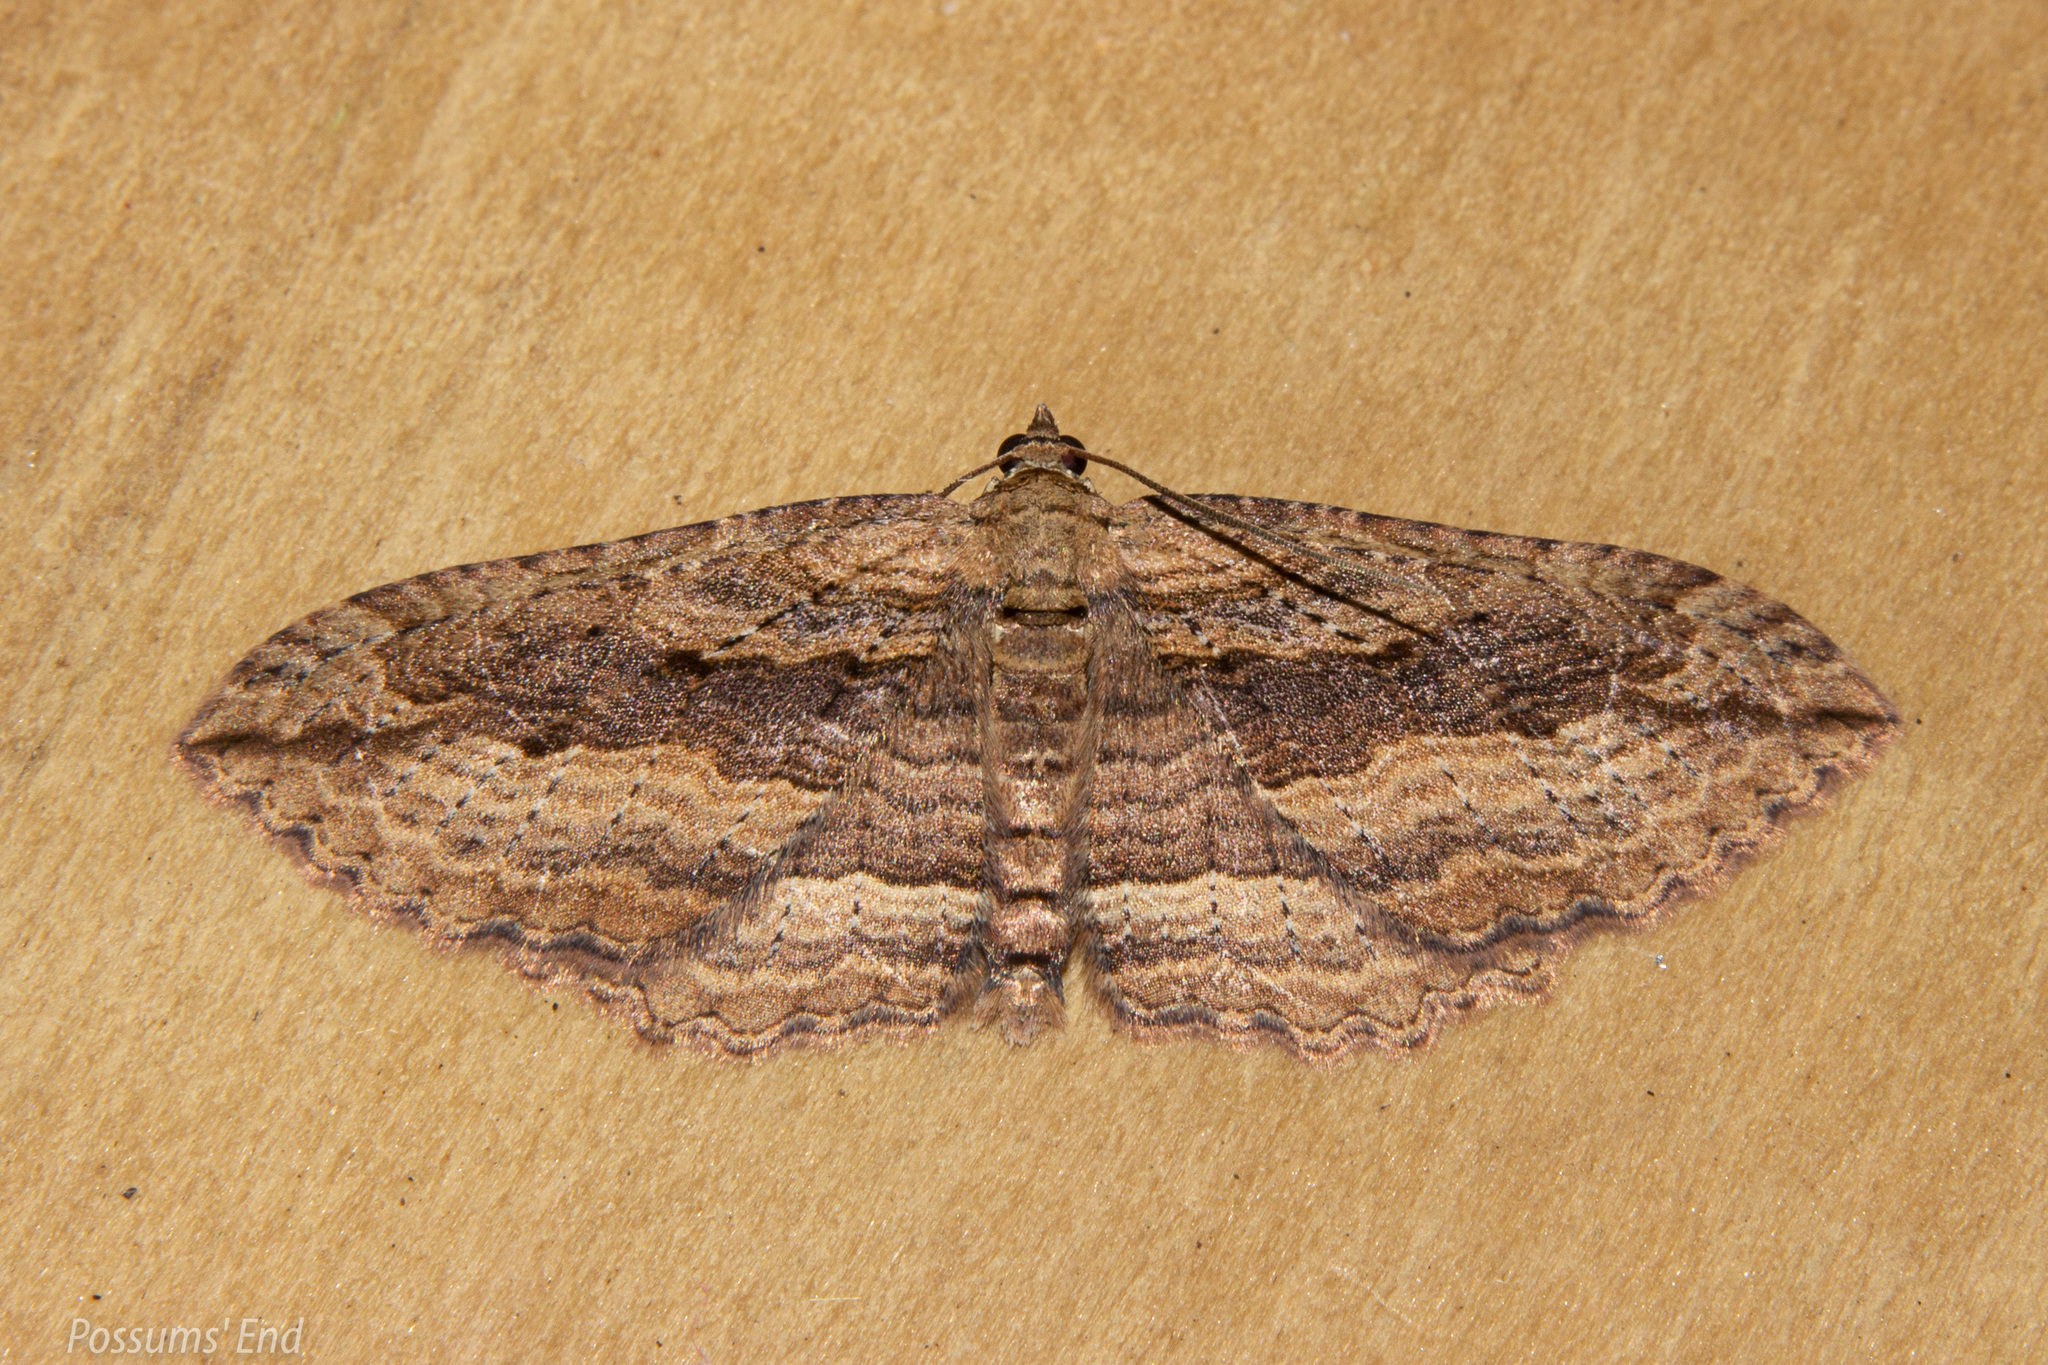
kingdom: Animalia
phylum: Arthropoda
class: Insecta
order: Lepidoptera
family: Geometridae
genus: Austrocidaria
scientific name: Austrocidaria gobiata
